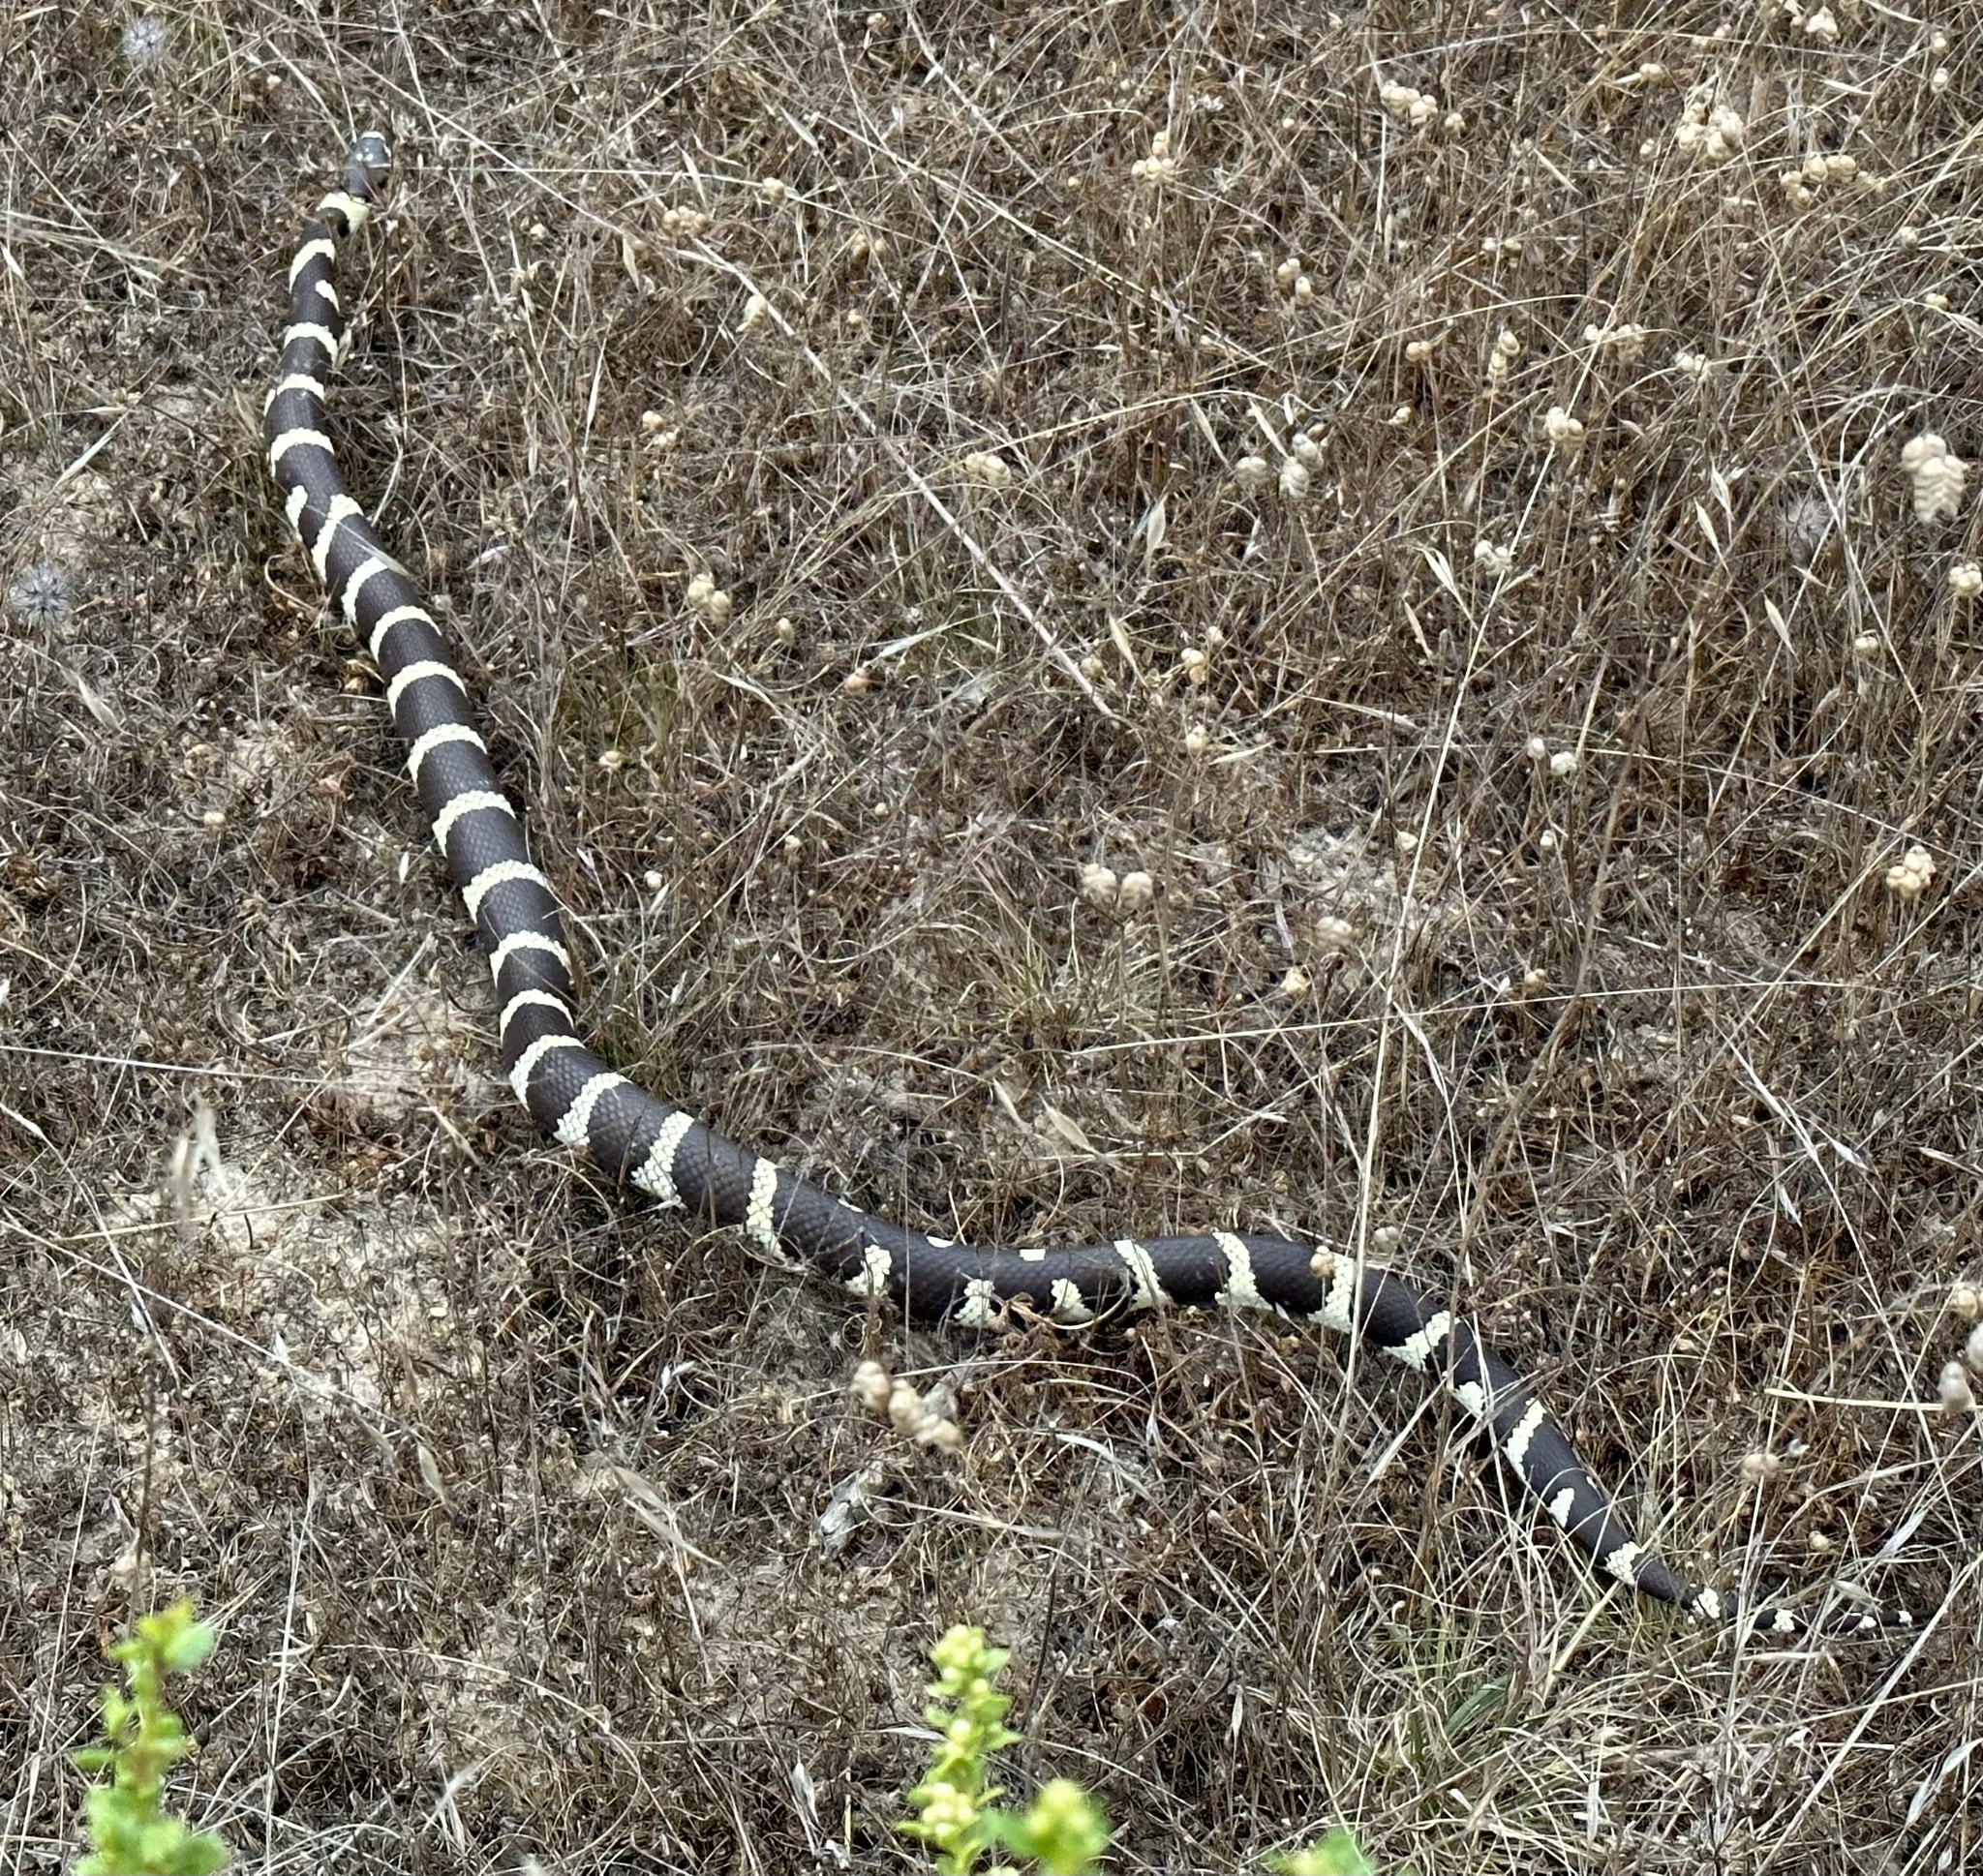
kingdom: Animalia
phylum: Chordata
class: Squamata
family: Colubridae
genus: Lampropeltis
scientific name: Lampropeltis californiae
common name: California kingsnake
